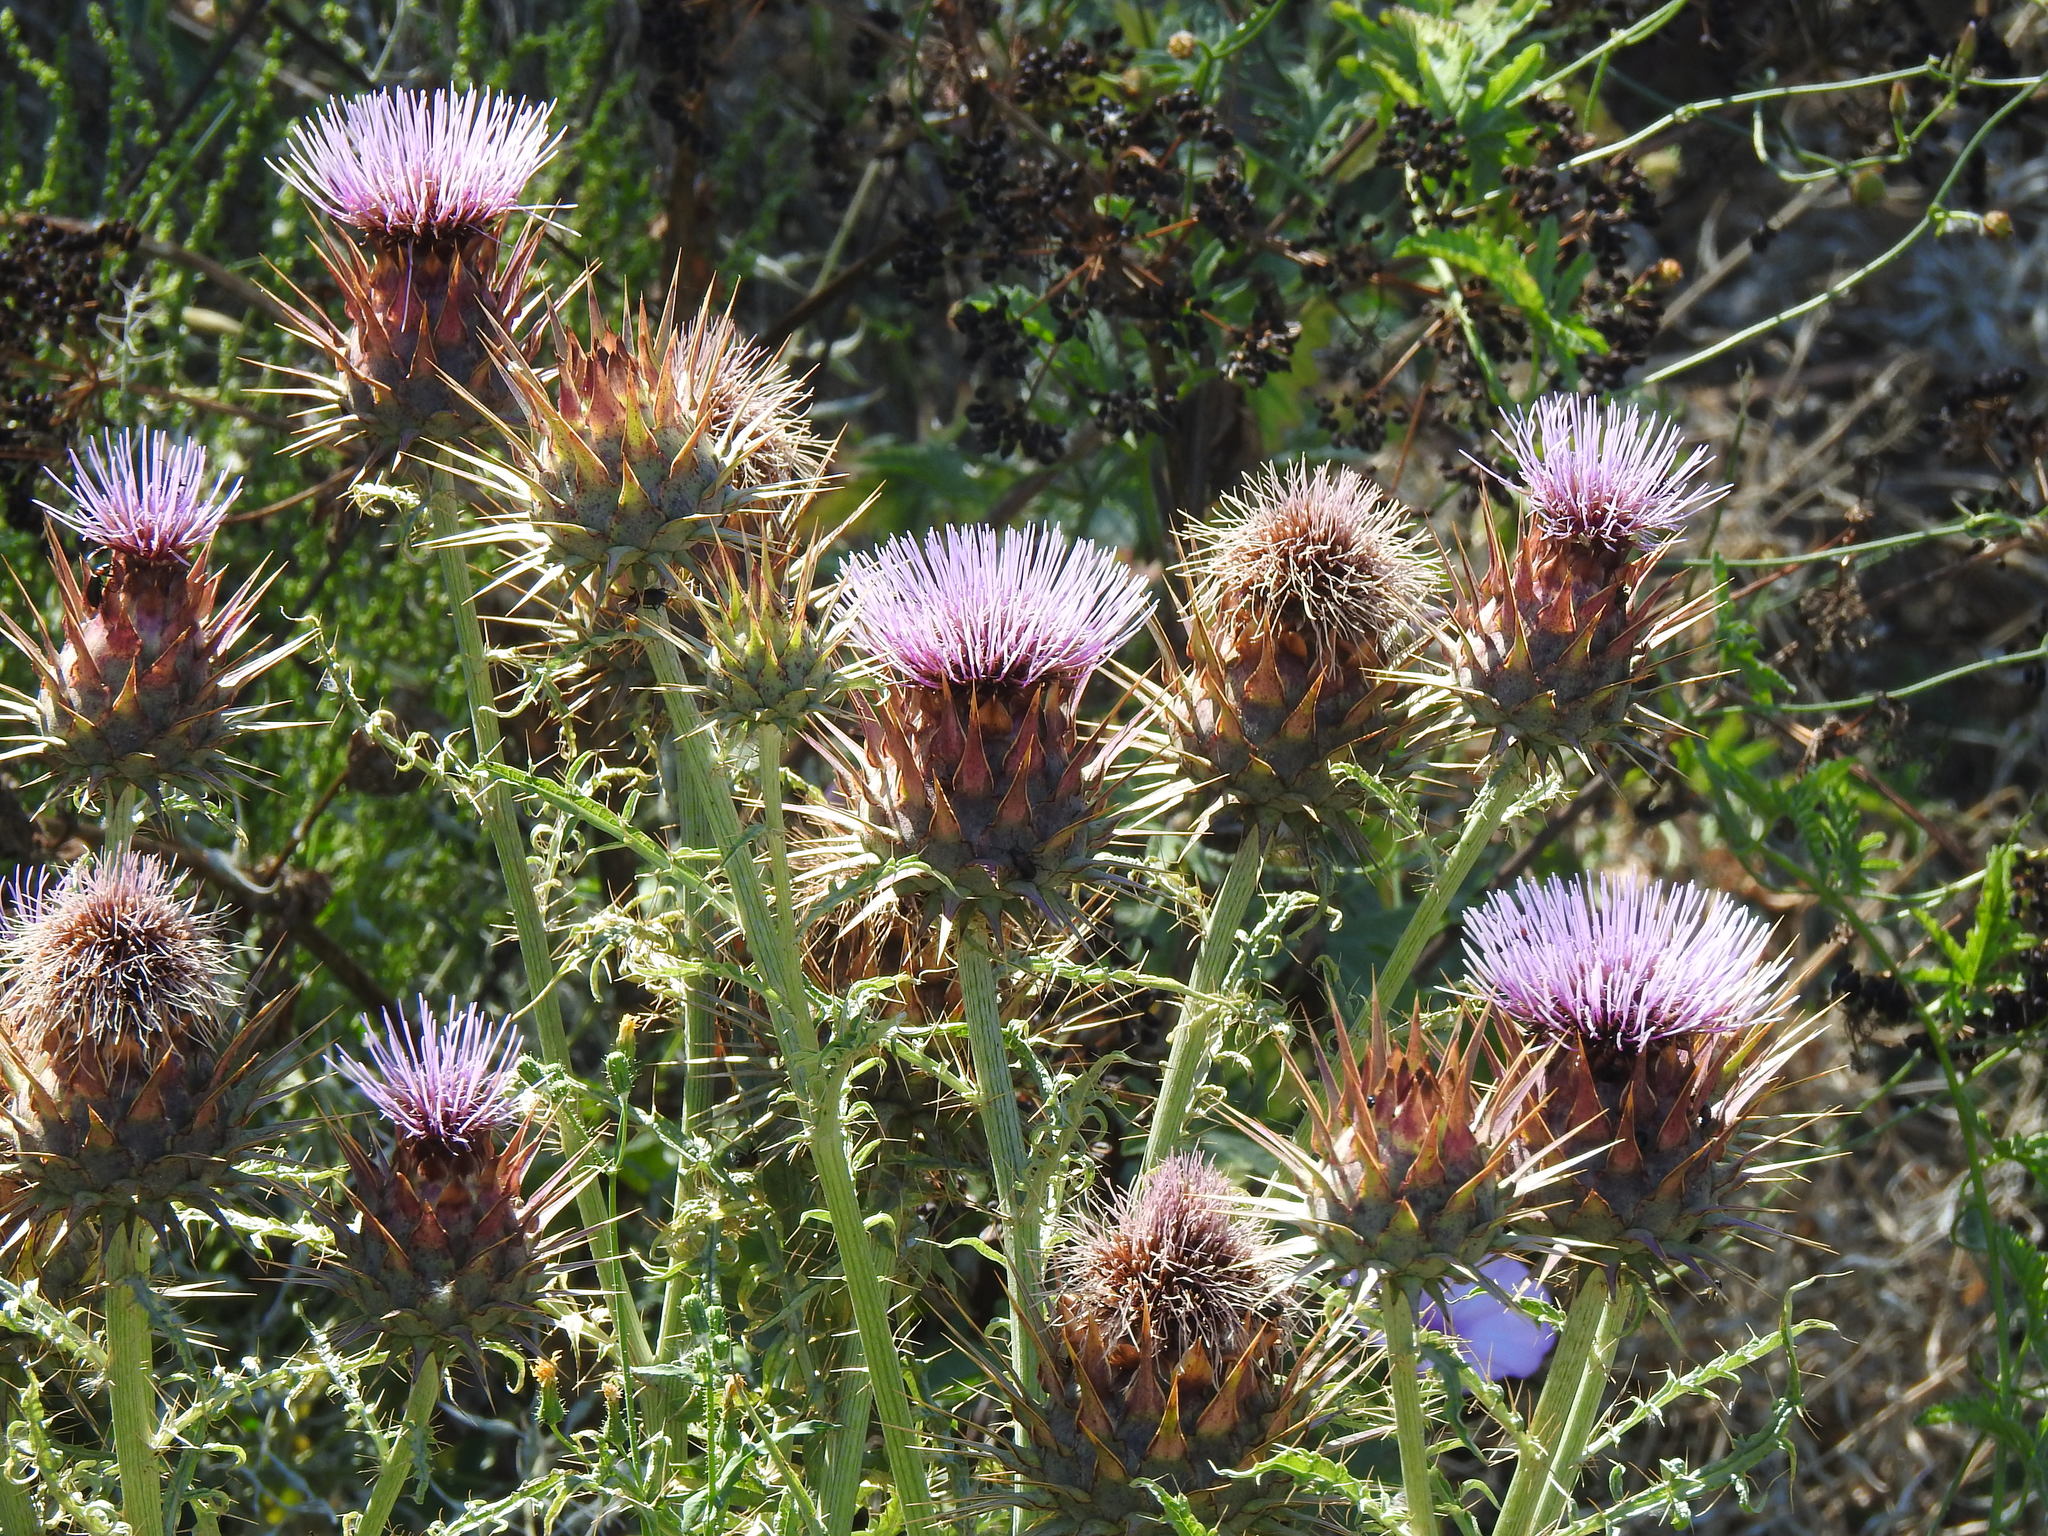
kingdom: Plantae
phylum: Tracheophyta
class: Magnoliopsida
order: Asterales
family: Asteraceae
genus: Cynara
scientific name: Cynara cardunculus
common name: Globe artichoke
